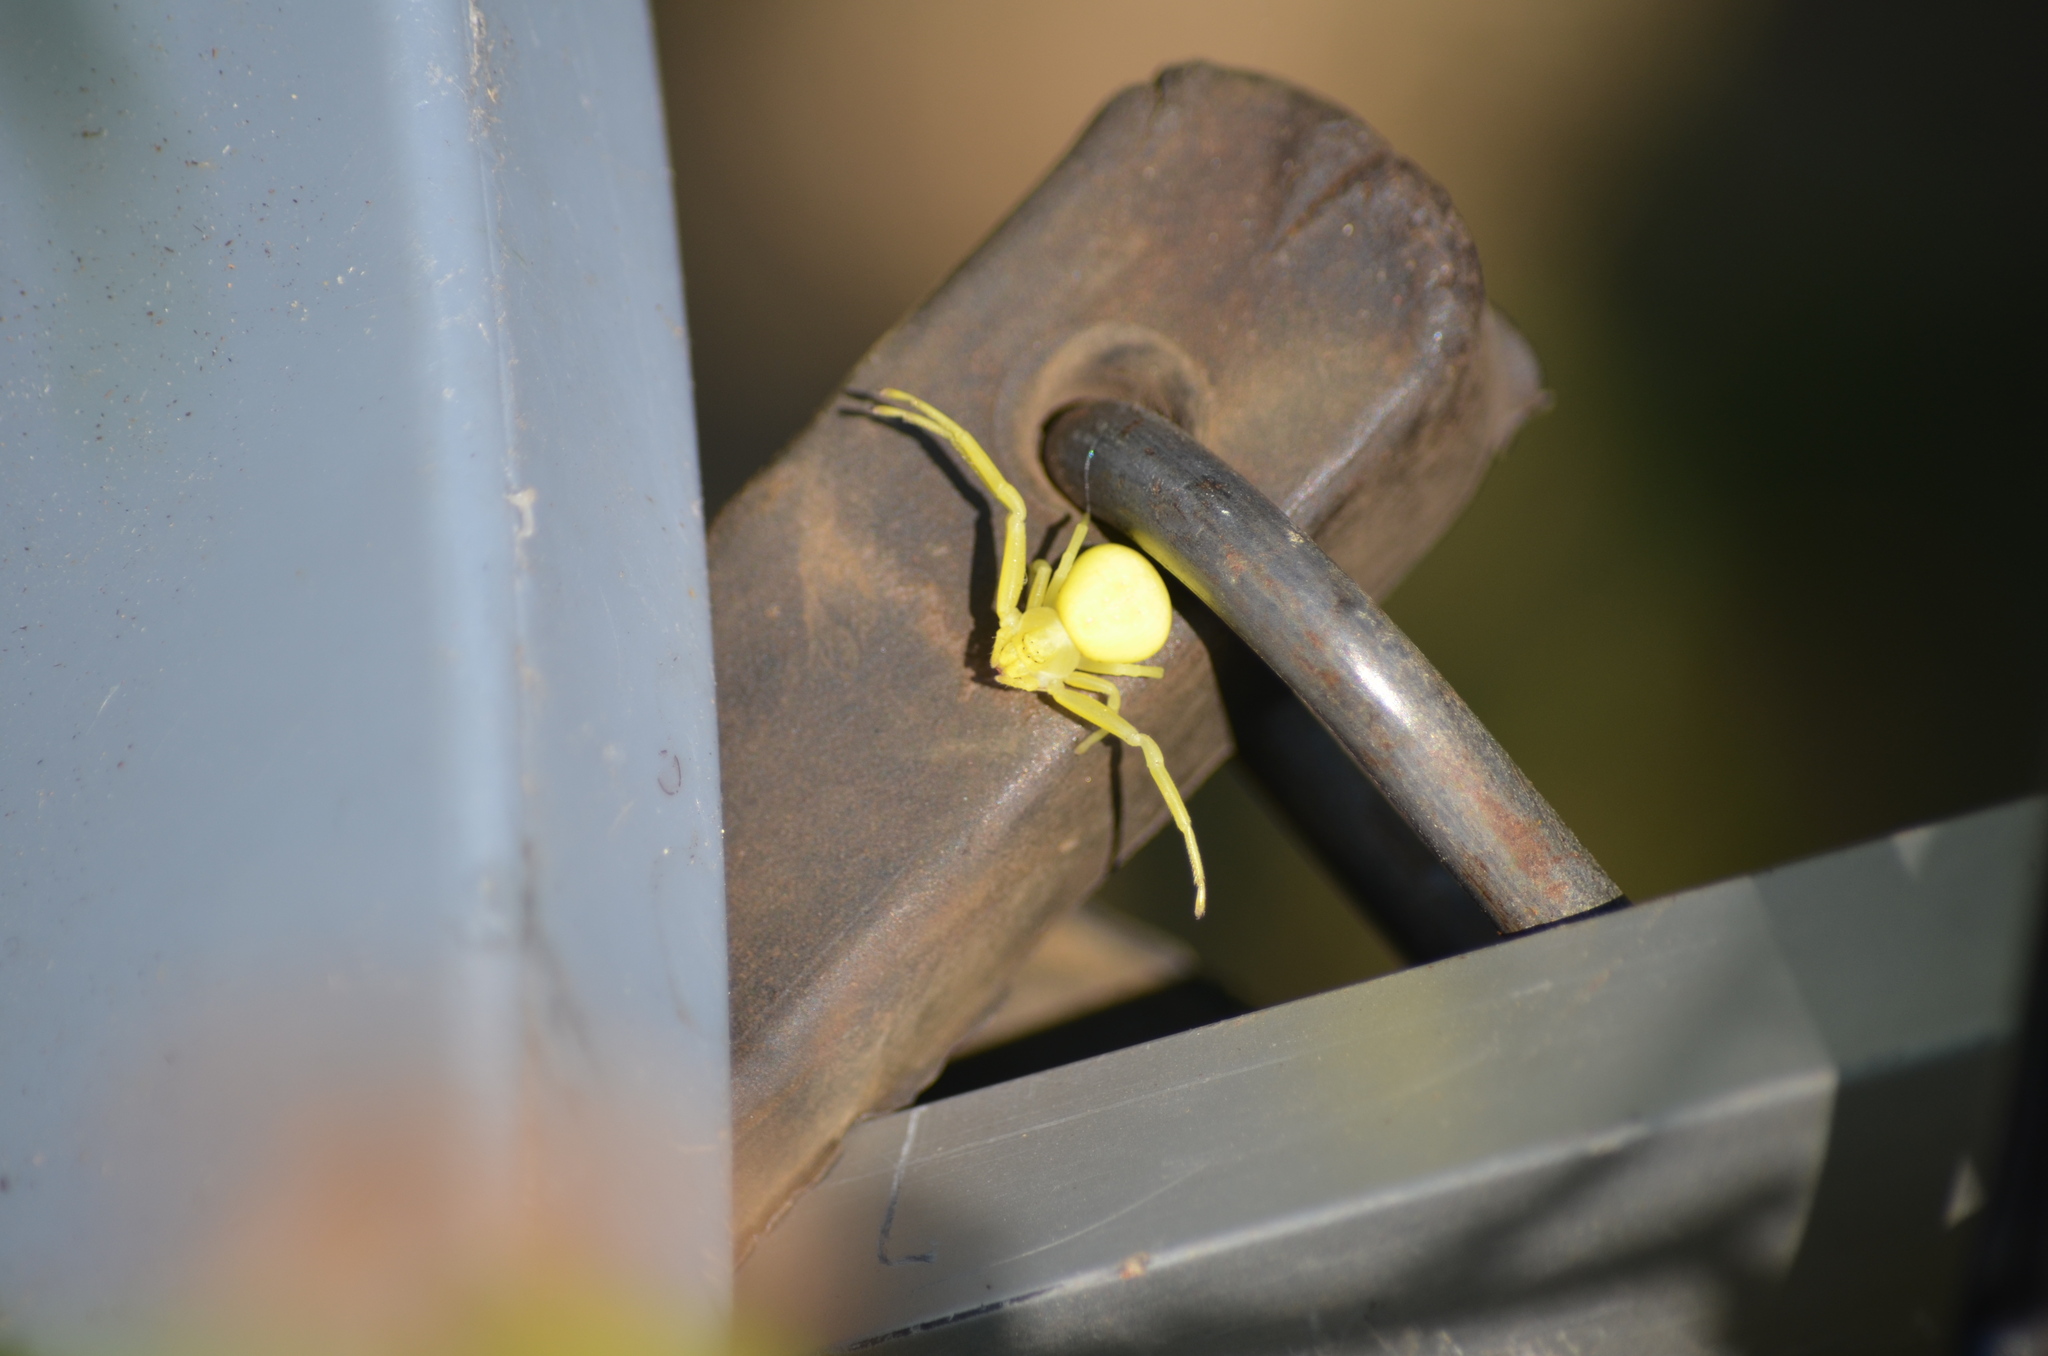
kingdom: Animalia
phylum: Arthropoda
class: Arachnida
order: Araneae
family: Thomisidae
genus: Misumena
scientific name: Misumena vatia
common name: Goldenrod crab spider
